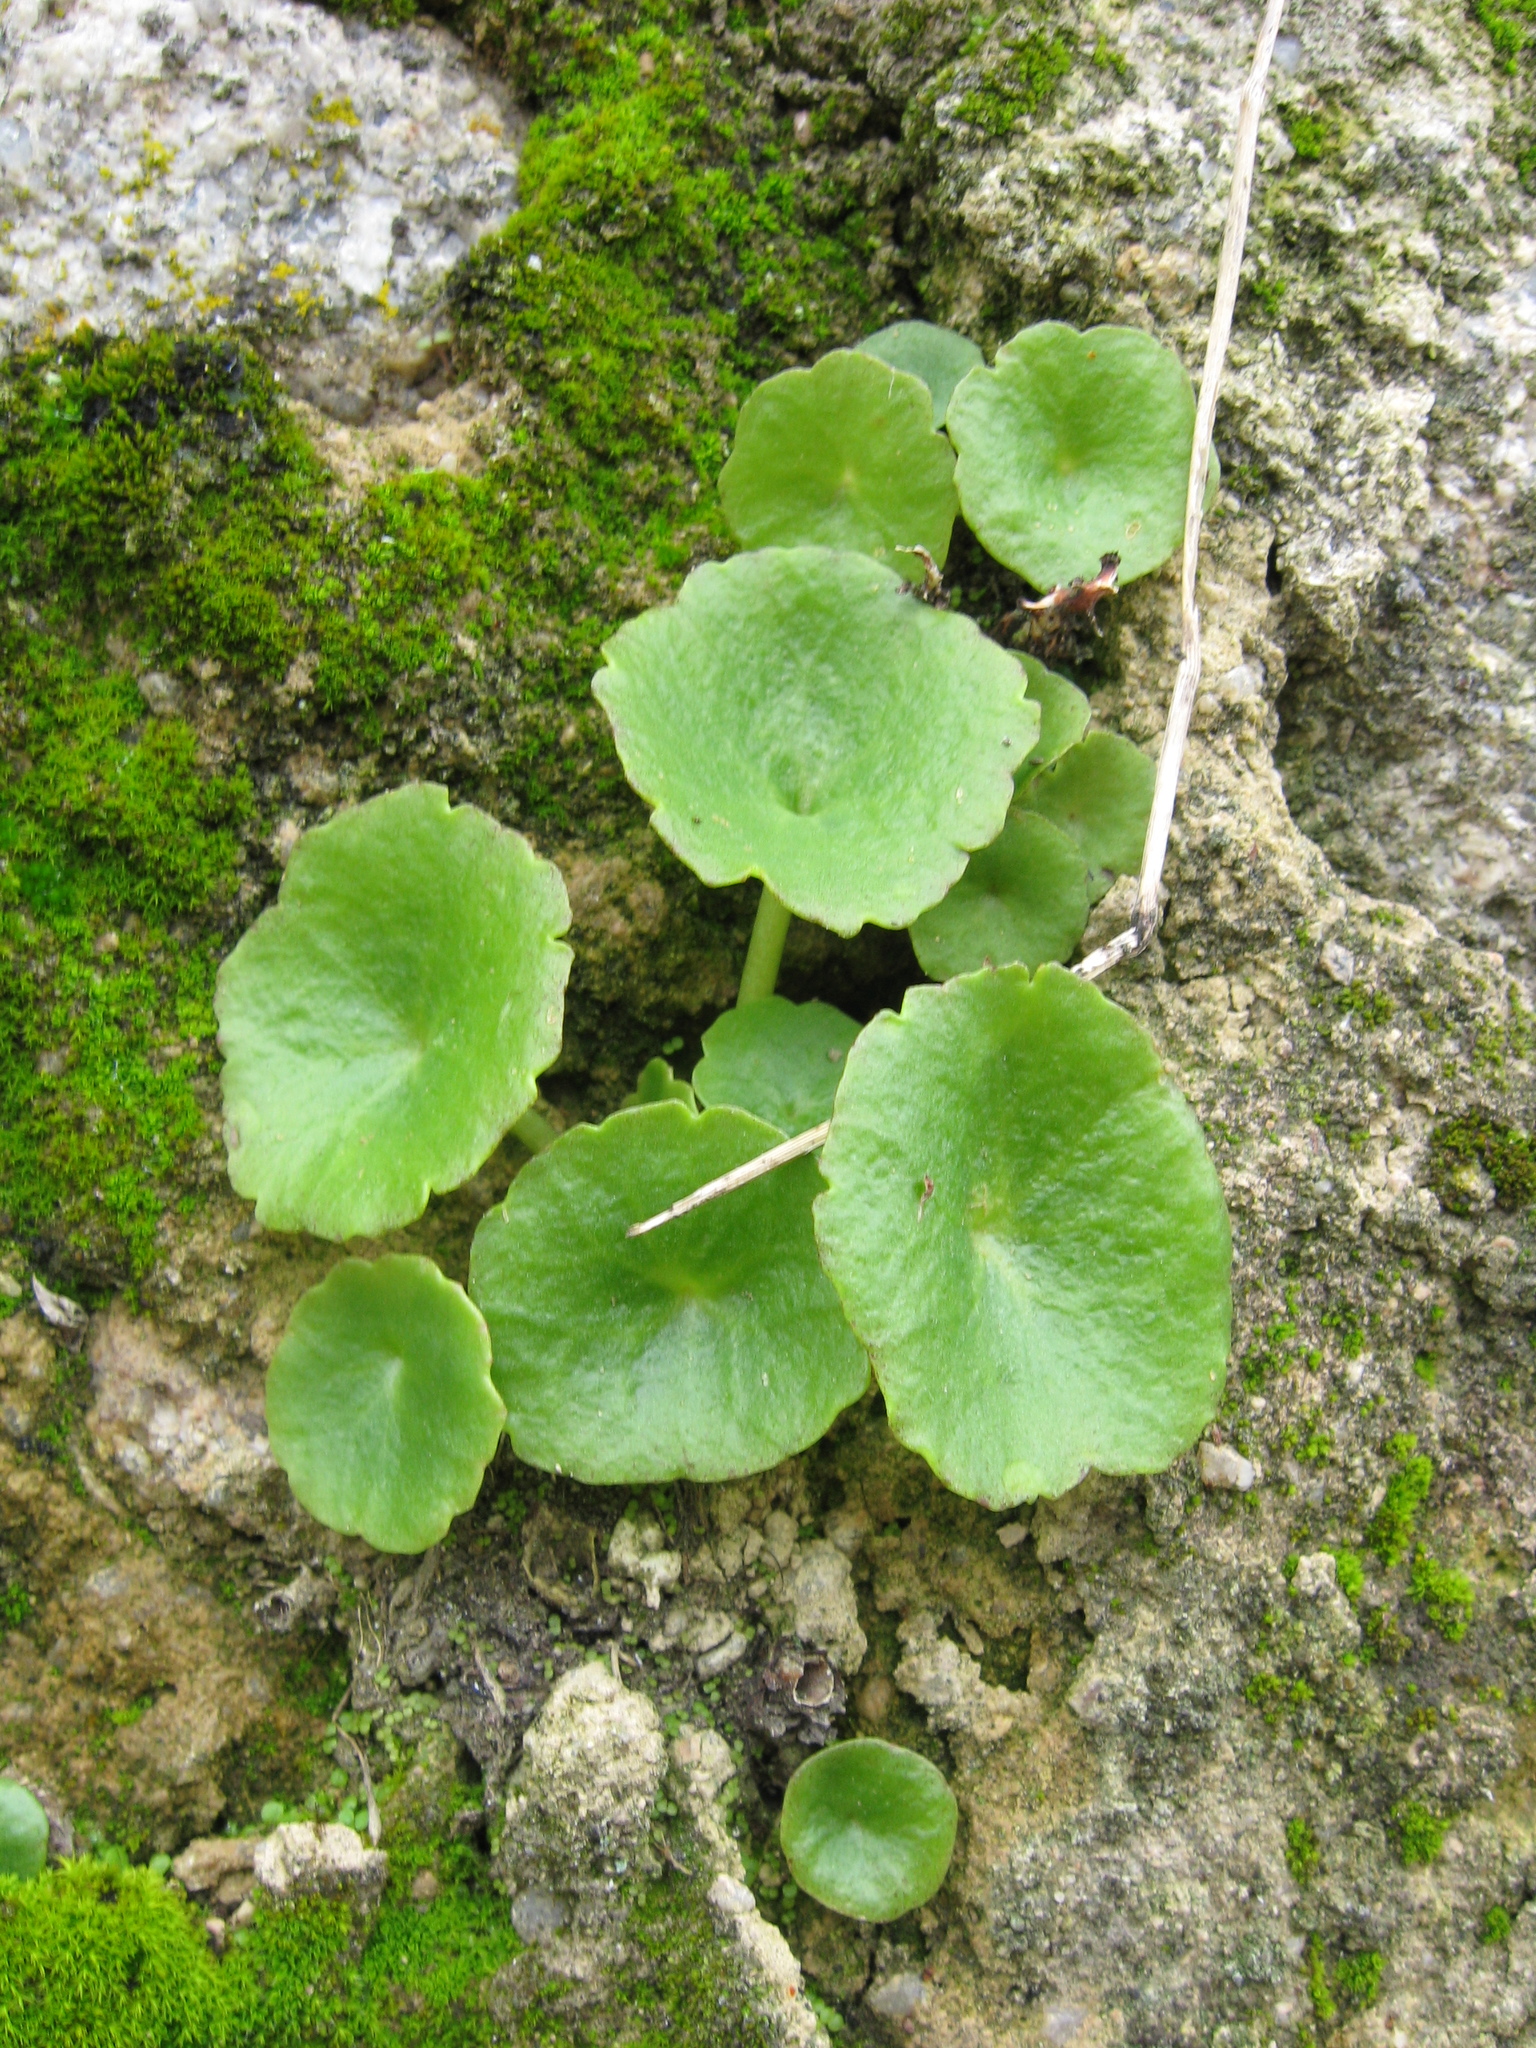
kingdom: Plantae
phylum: Tracheophyta
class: Magnoliopsida
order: Saxifragales
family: Crassulaceae
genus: Umbilicus
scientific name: Umbilicus rupestris
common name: Navelwort
